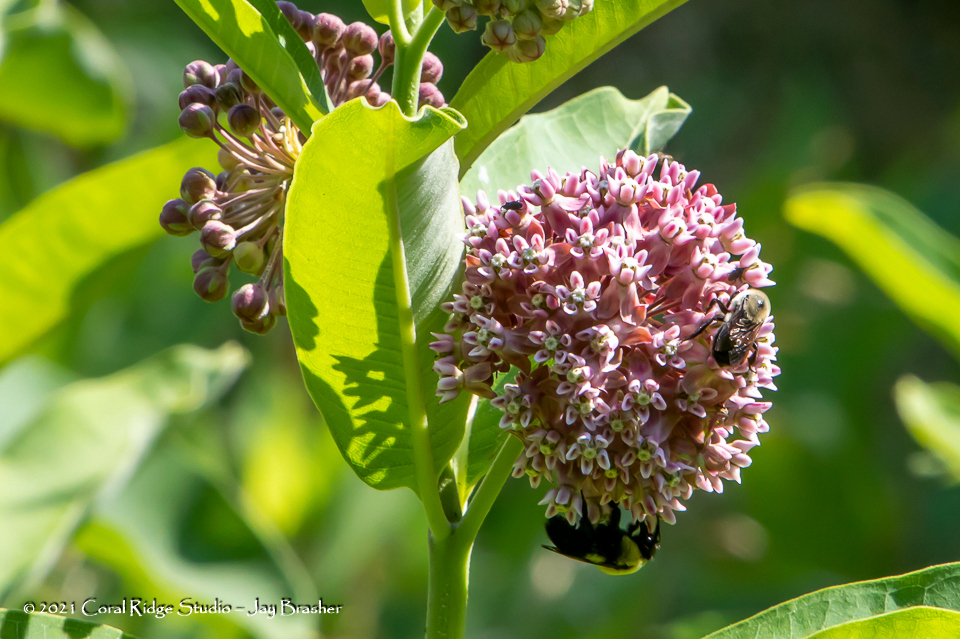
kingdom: Plantae
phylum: Tracheophyta
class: Magnoliopsida
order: Gentianales
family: Apocynaceae
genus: Asclepias
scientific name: Asclepias syriaca
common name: Common milkweed
